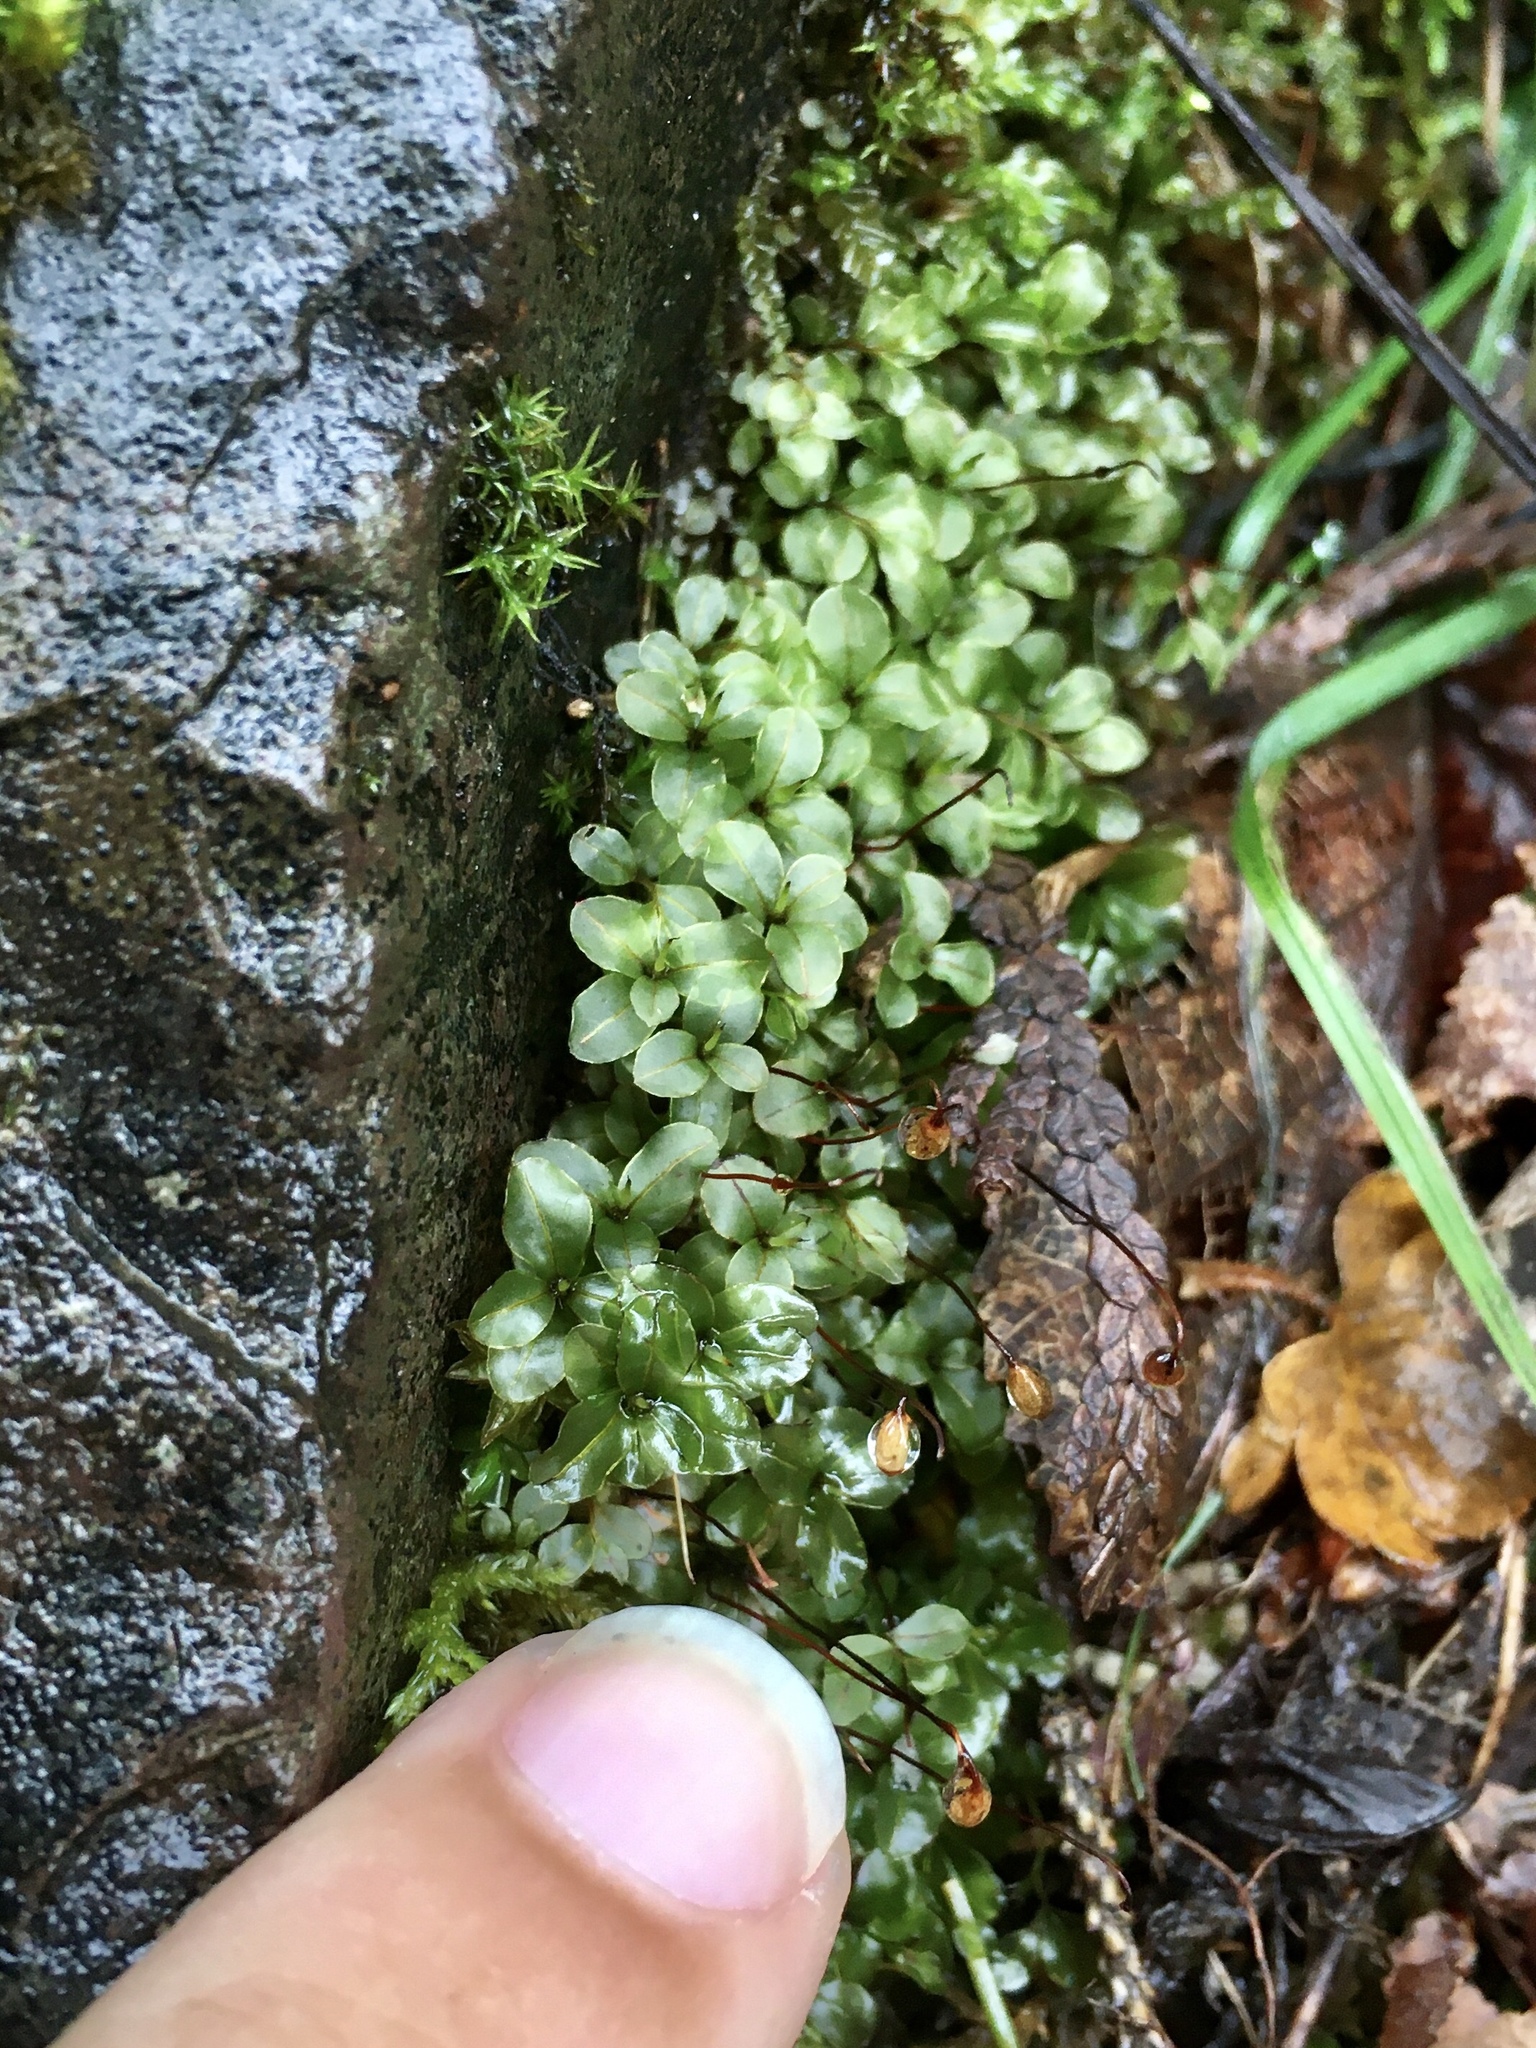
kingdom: Plantae
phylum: Bryophyta
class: Bryopsida
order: Bryales
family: Mniaceae
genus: Rhizomnium
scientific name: Rhizomnium appalachianum
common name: Appalachian leafy moss
